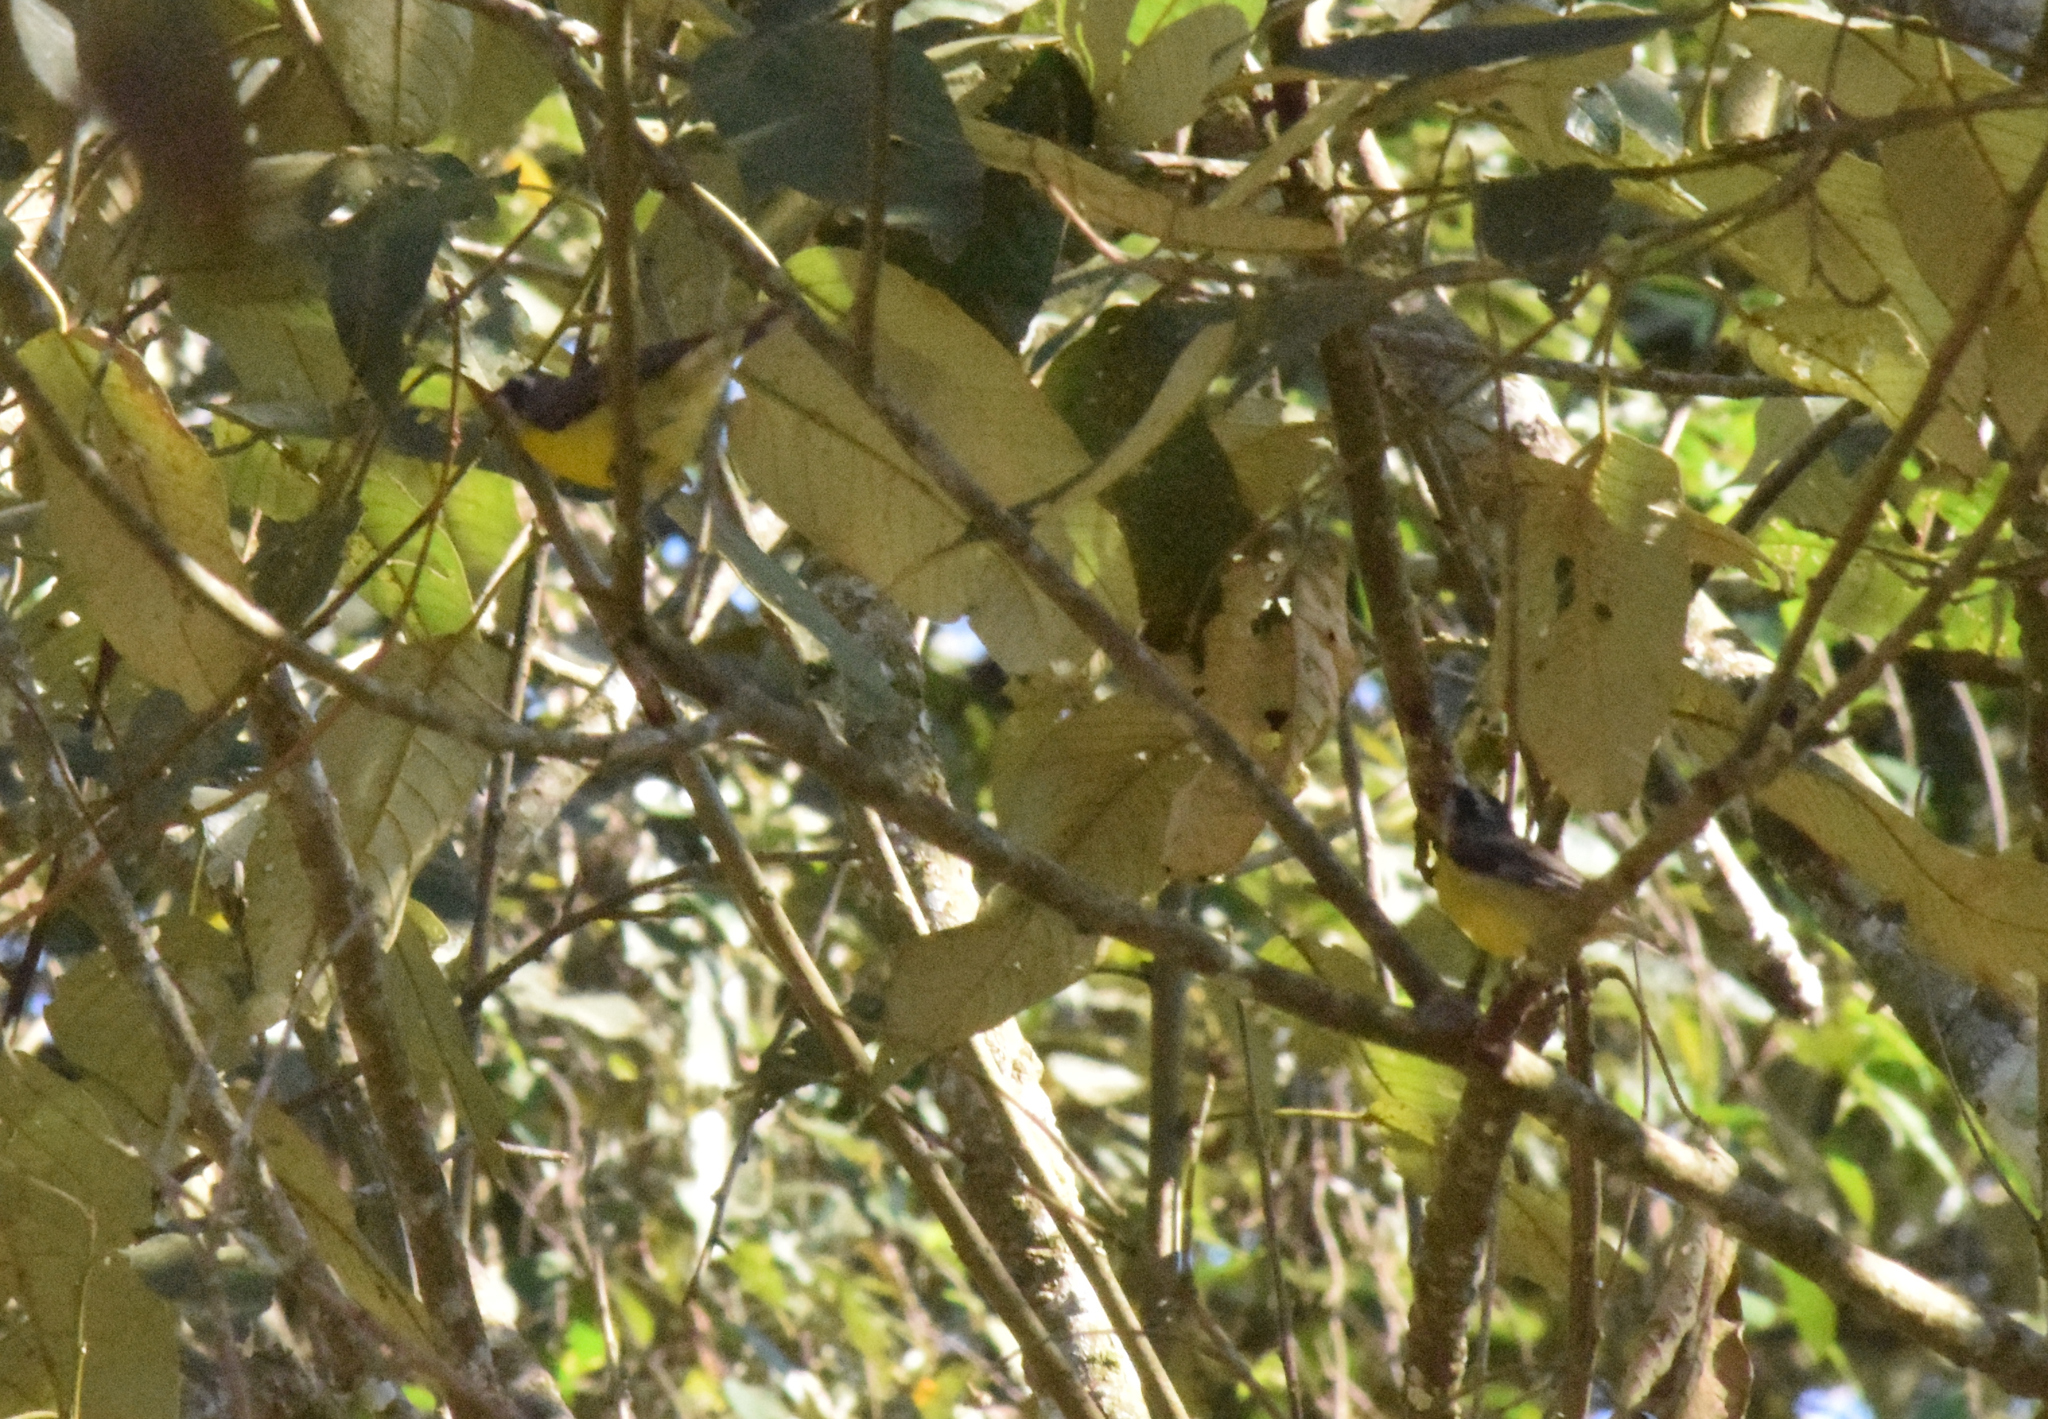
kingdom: Animalia
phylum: Chordata
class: Aves
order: Passeriformes
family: Thraupidae
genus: Coereba
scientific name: Coereba flaveola
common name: Bananaquit
